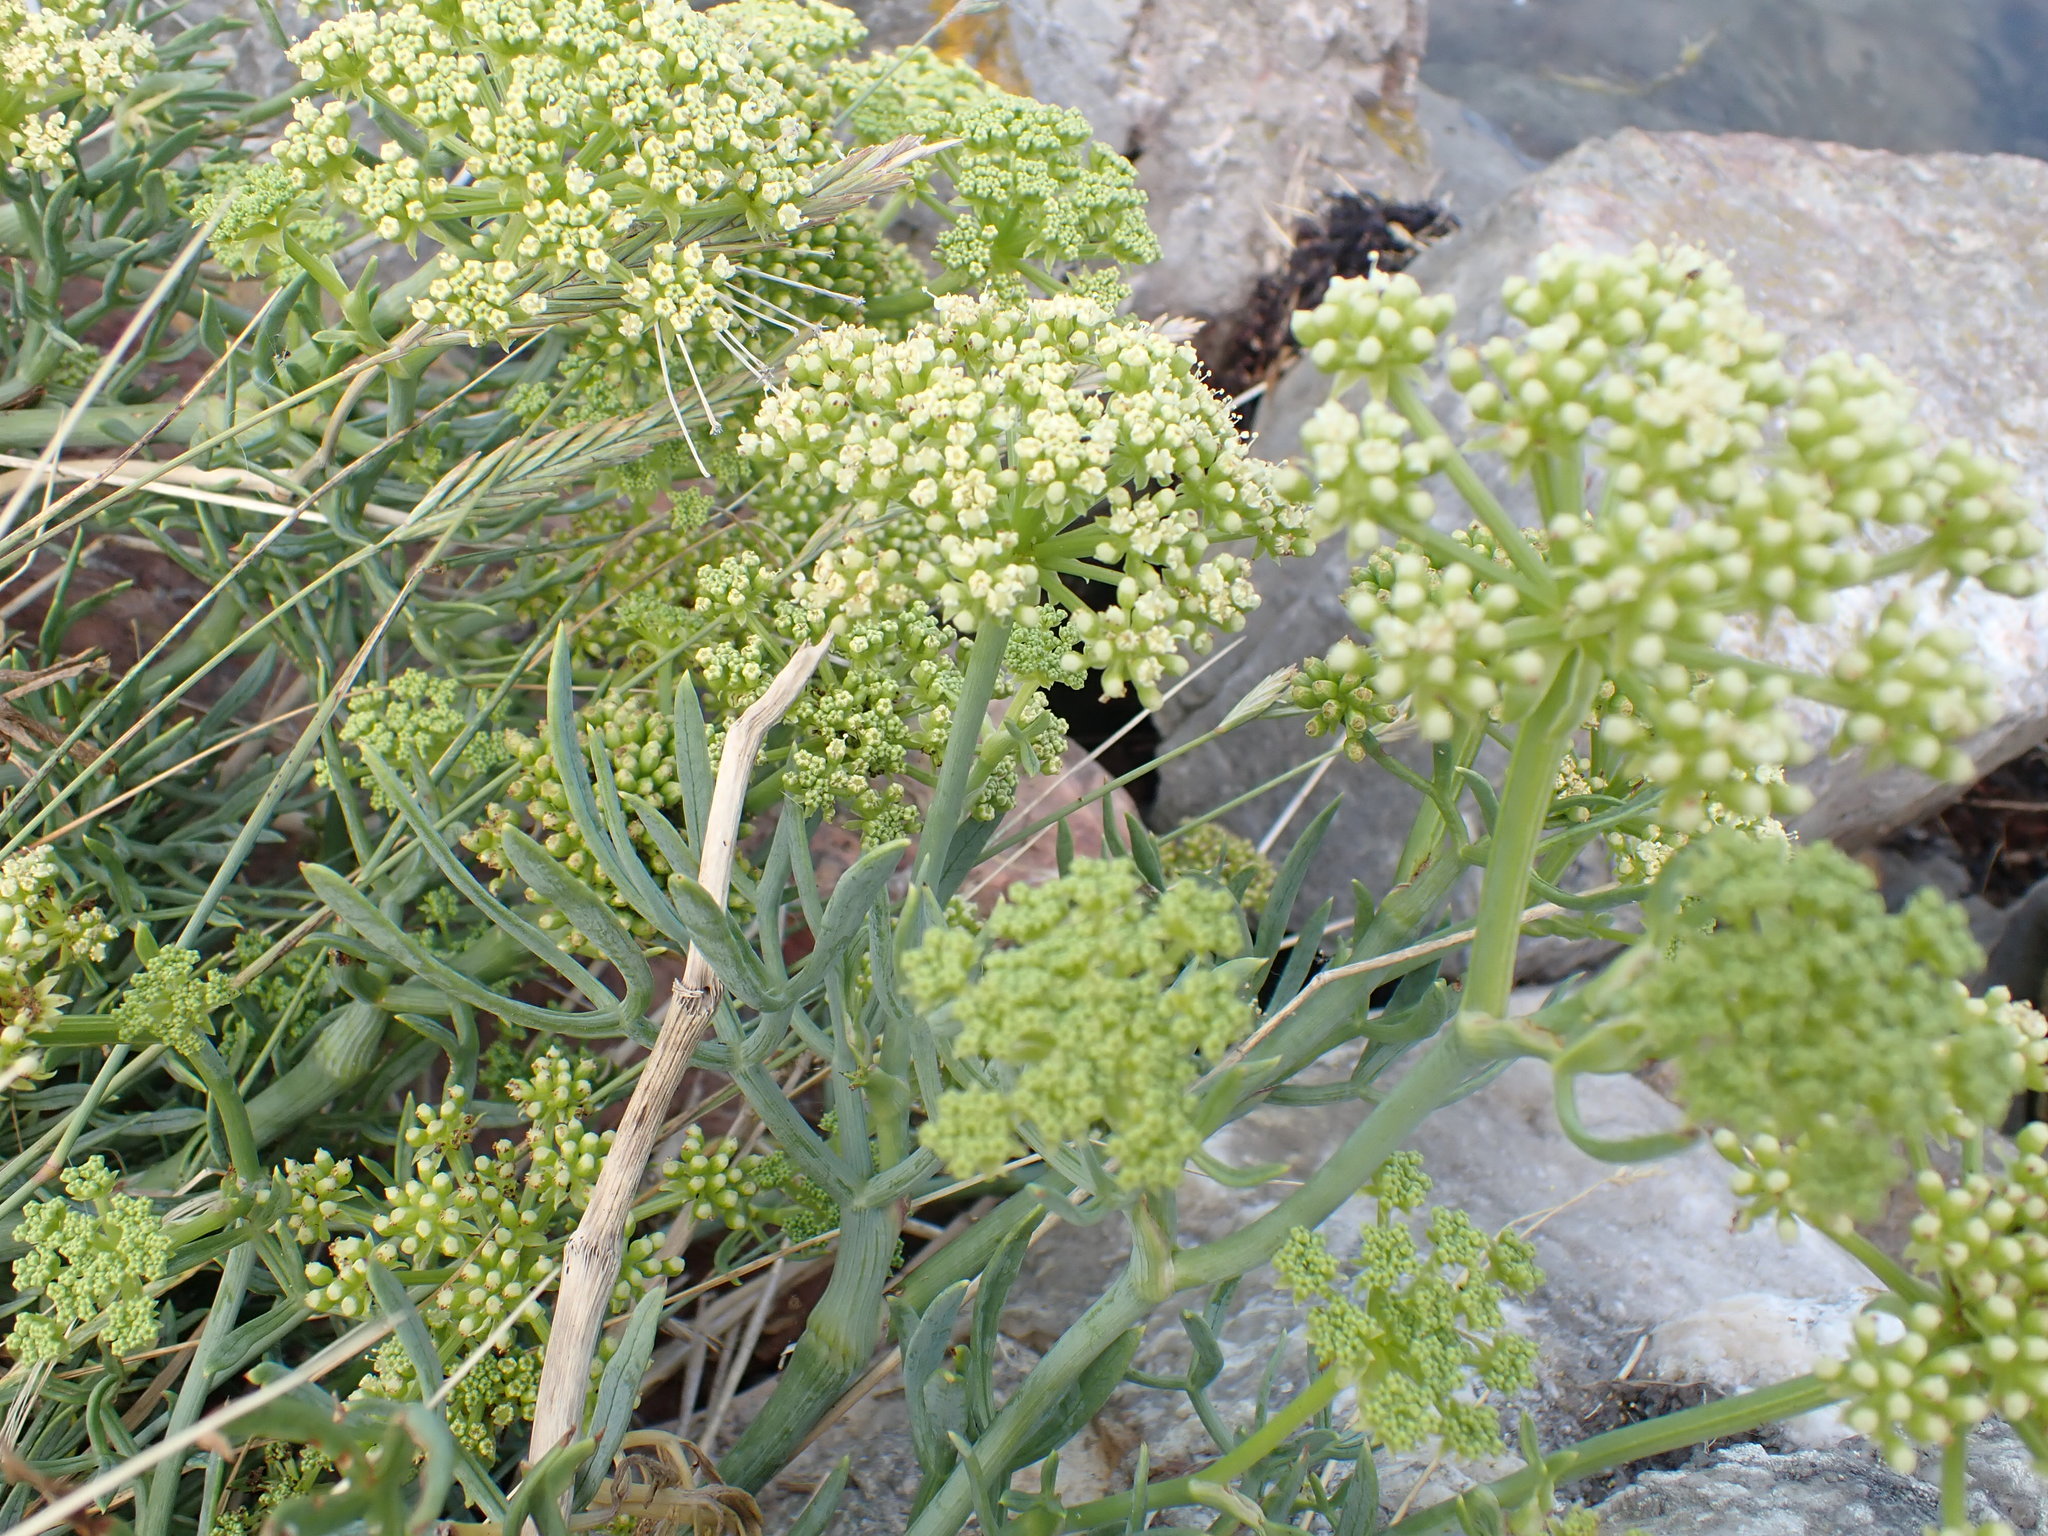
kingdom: Plantae
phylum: Tracheophyta
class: Magnoliopsida
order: Apiales
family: Apiaceae
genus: Crithmum
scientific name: Crithmum maritimum
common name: Rock samphire
